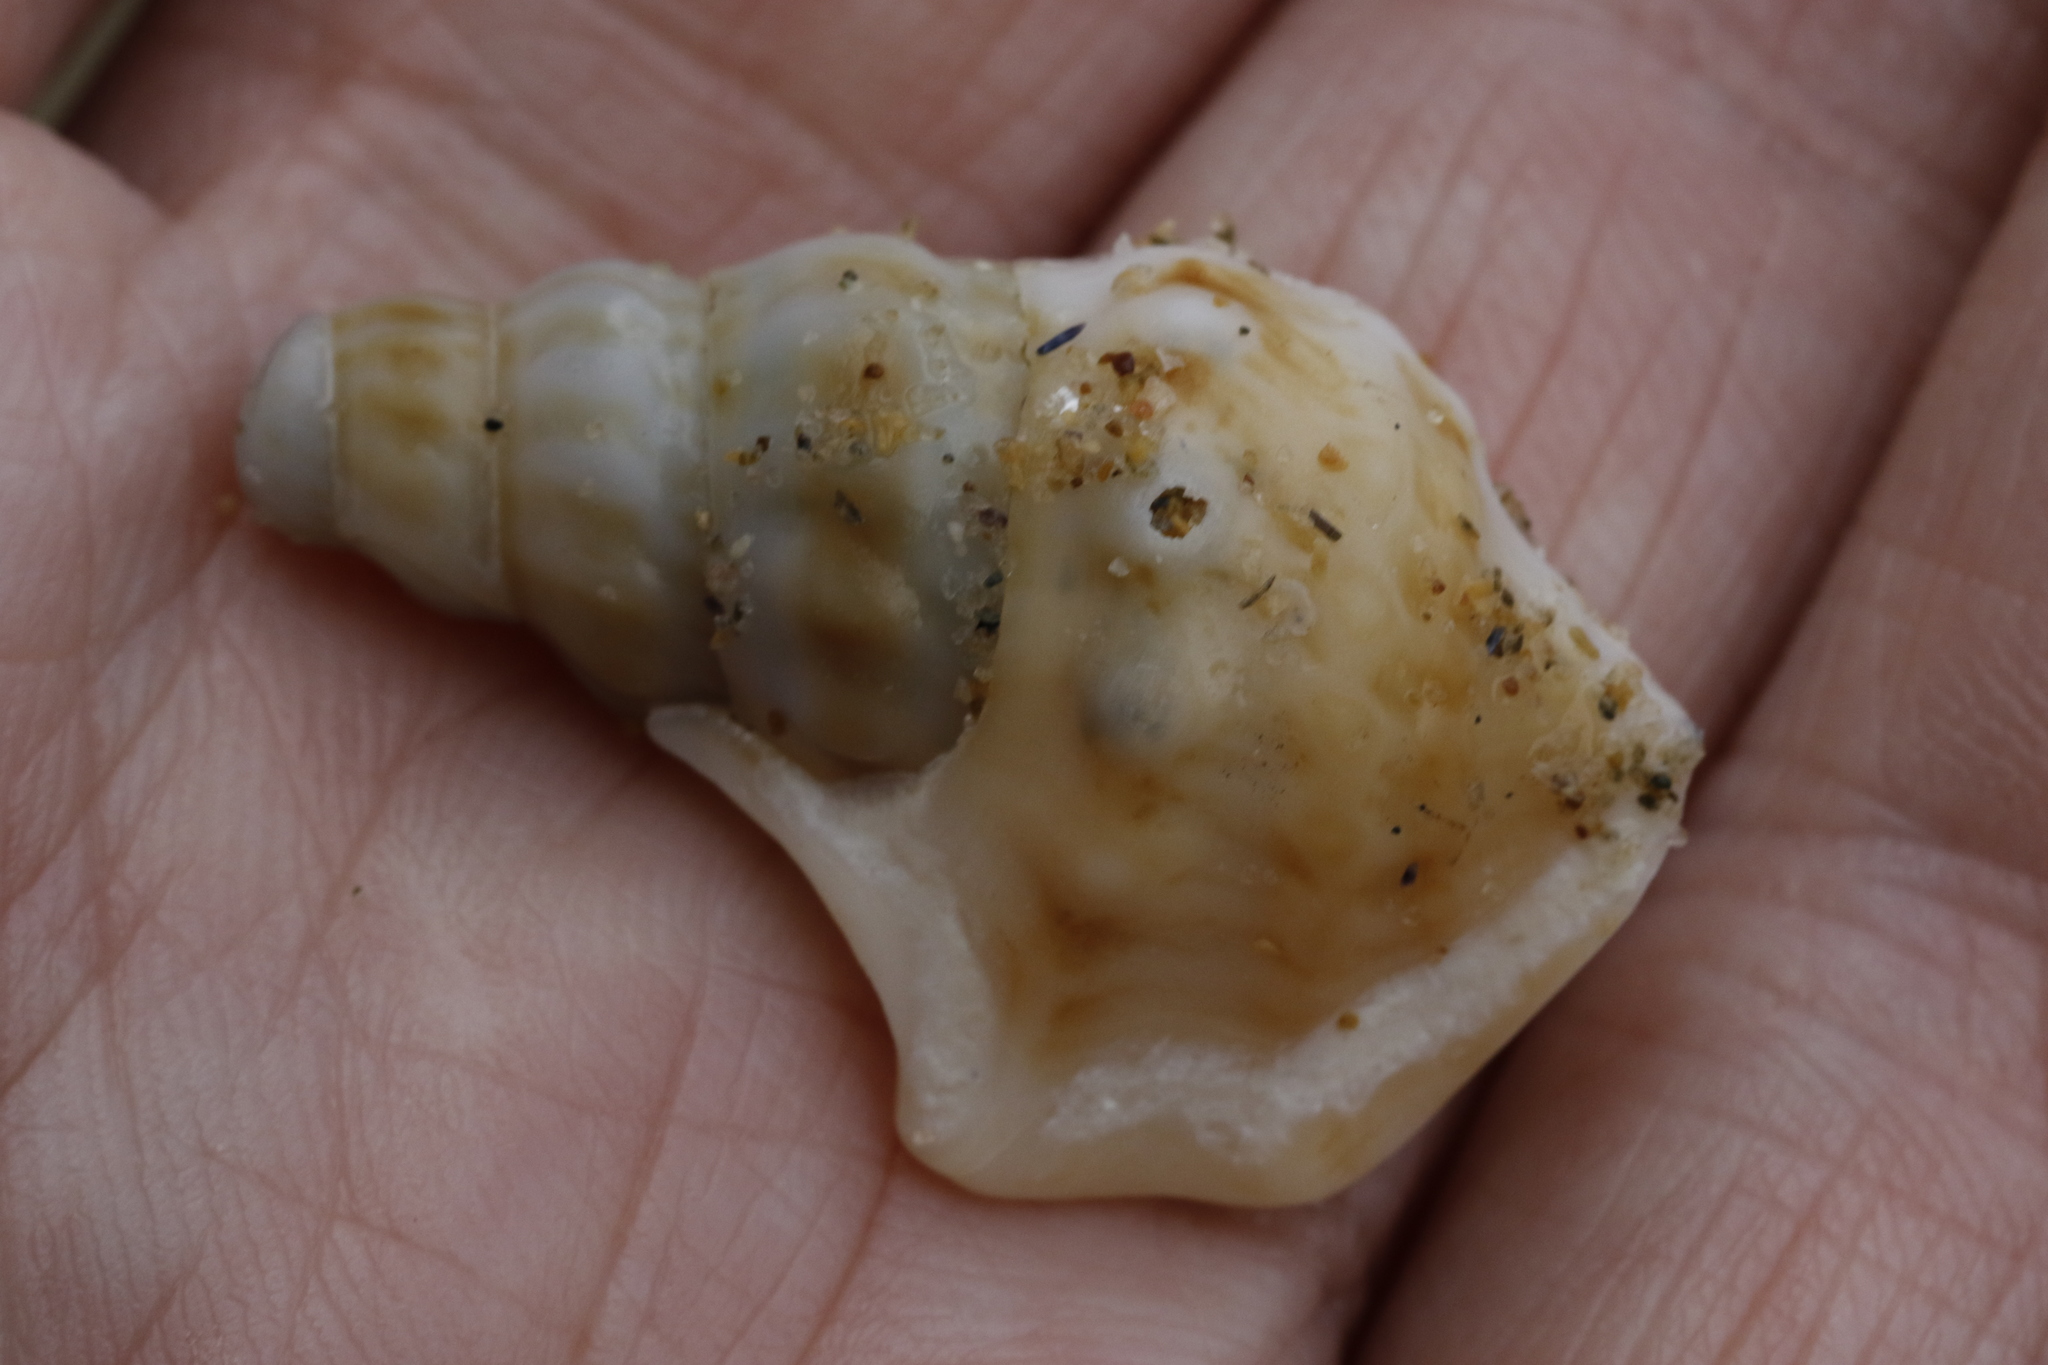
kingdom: Animalia
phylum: Mollusca
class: Gastropoda
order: Littorinimorpha
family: Aporrhaidae
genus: Aporrhais
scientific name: Aporrhais pespelecani
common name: Common pelican’s foot
